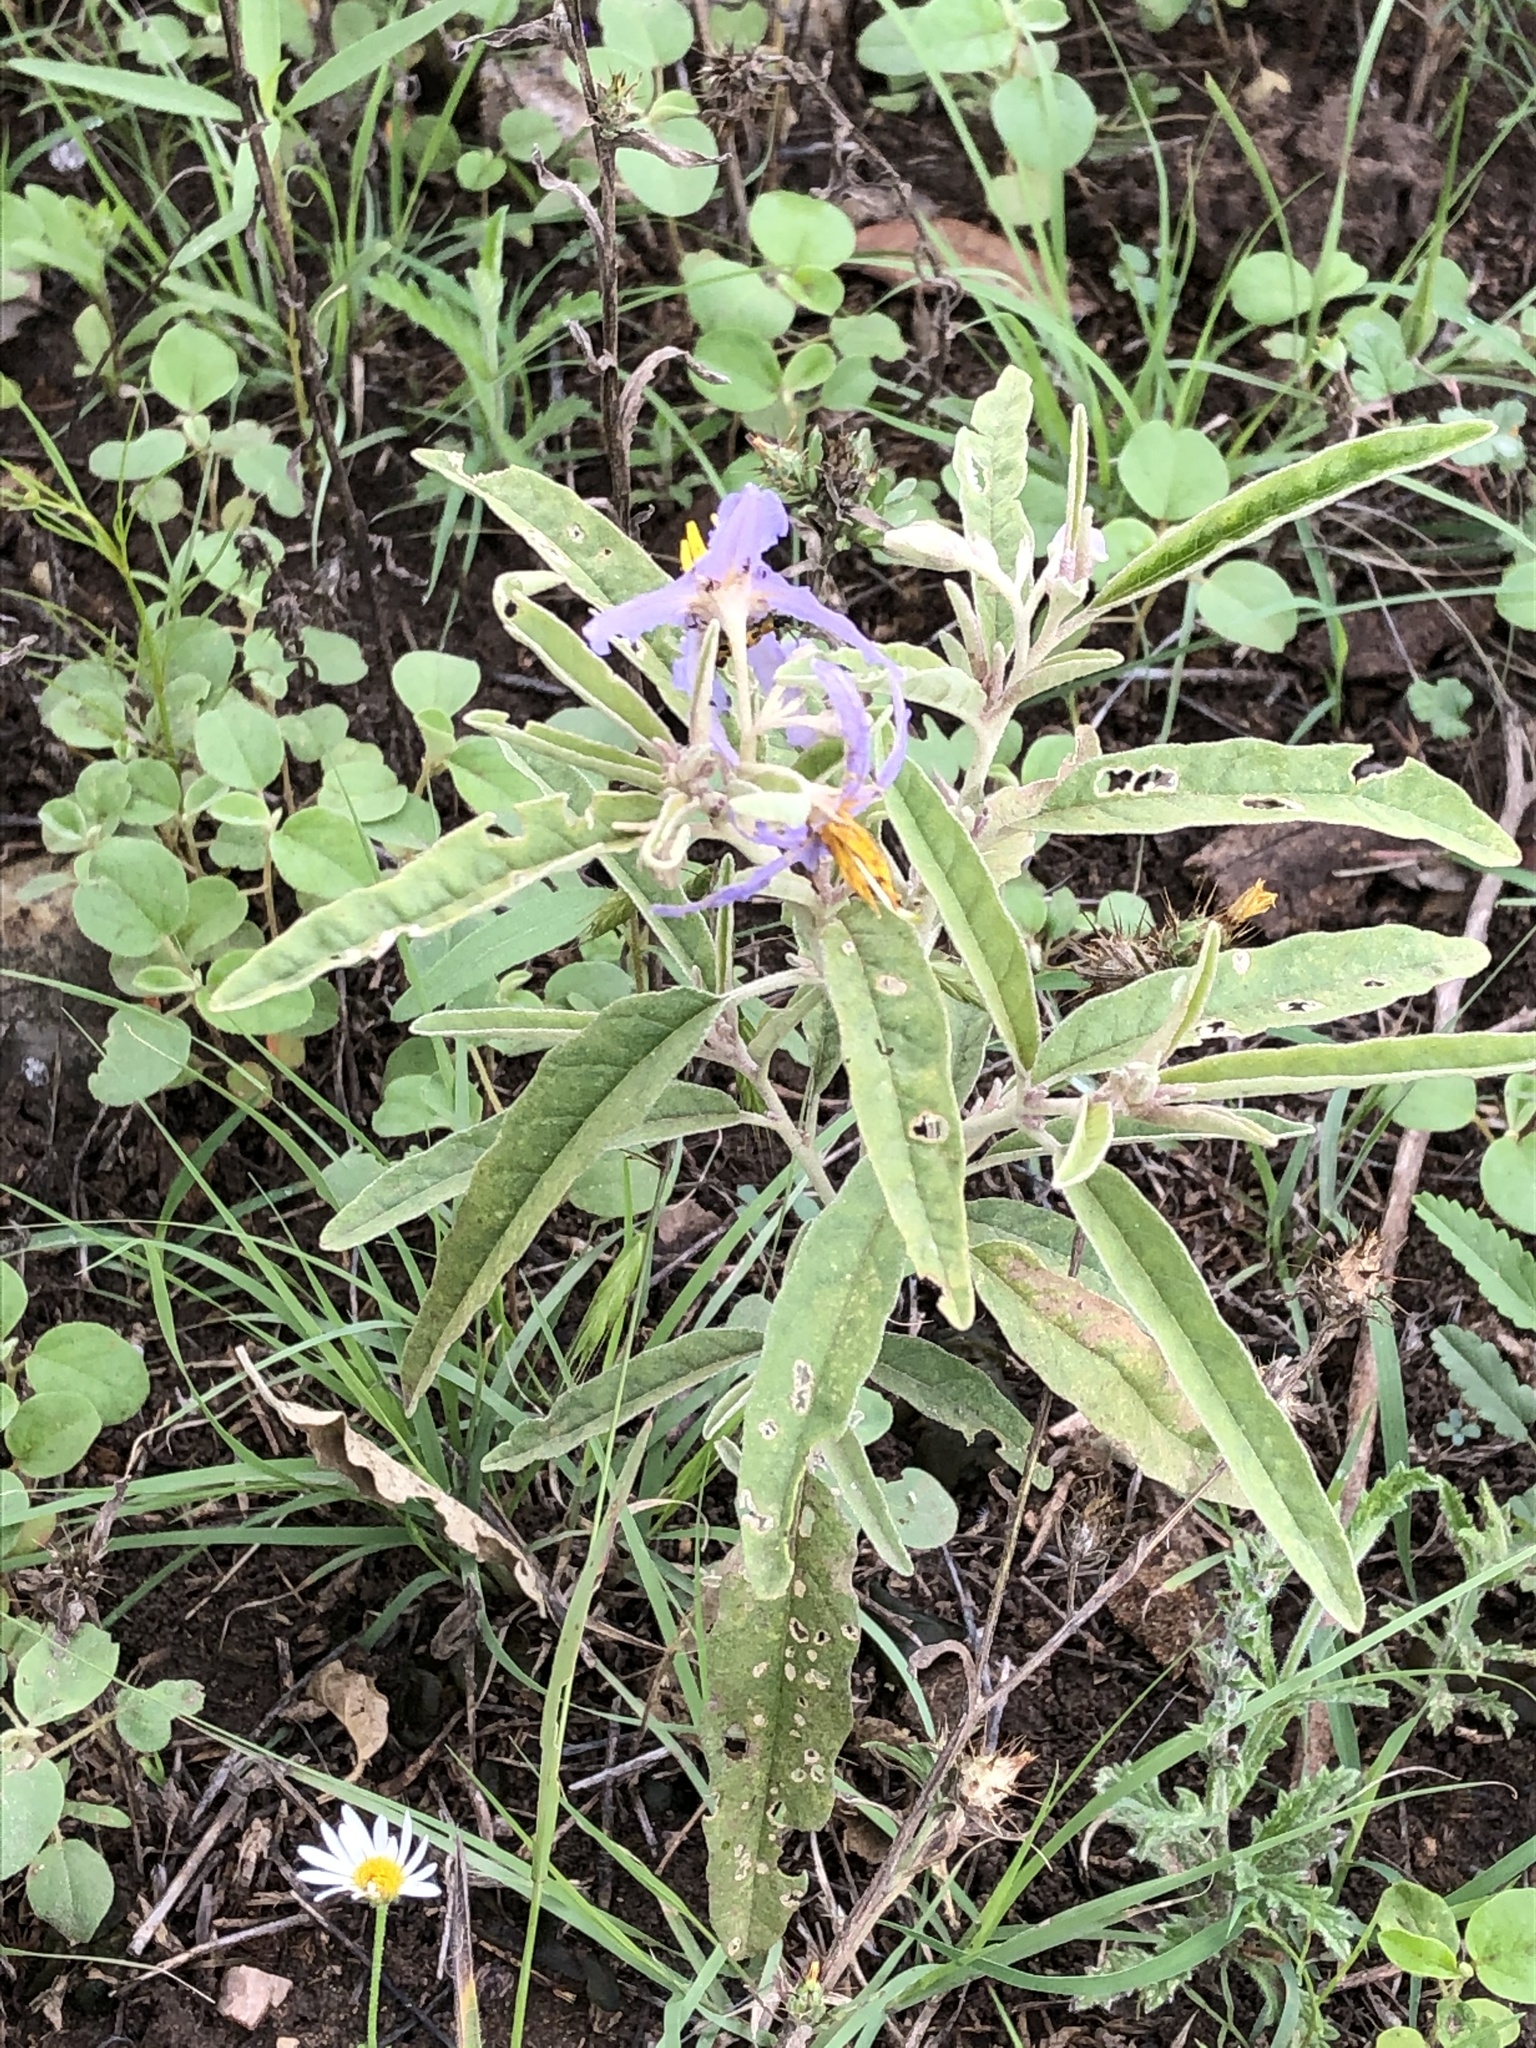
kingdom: Plantae
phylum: Tracheophyta
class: Magnoliopsida
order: Solanales
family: Solanaceae
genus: Solanum
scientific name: Solanum elaeagnifolium
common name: Silverleaf nightshade
